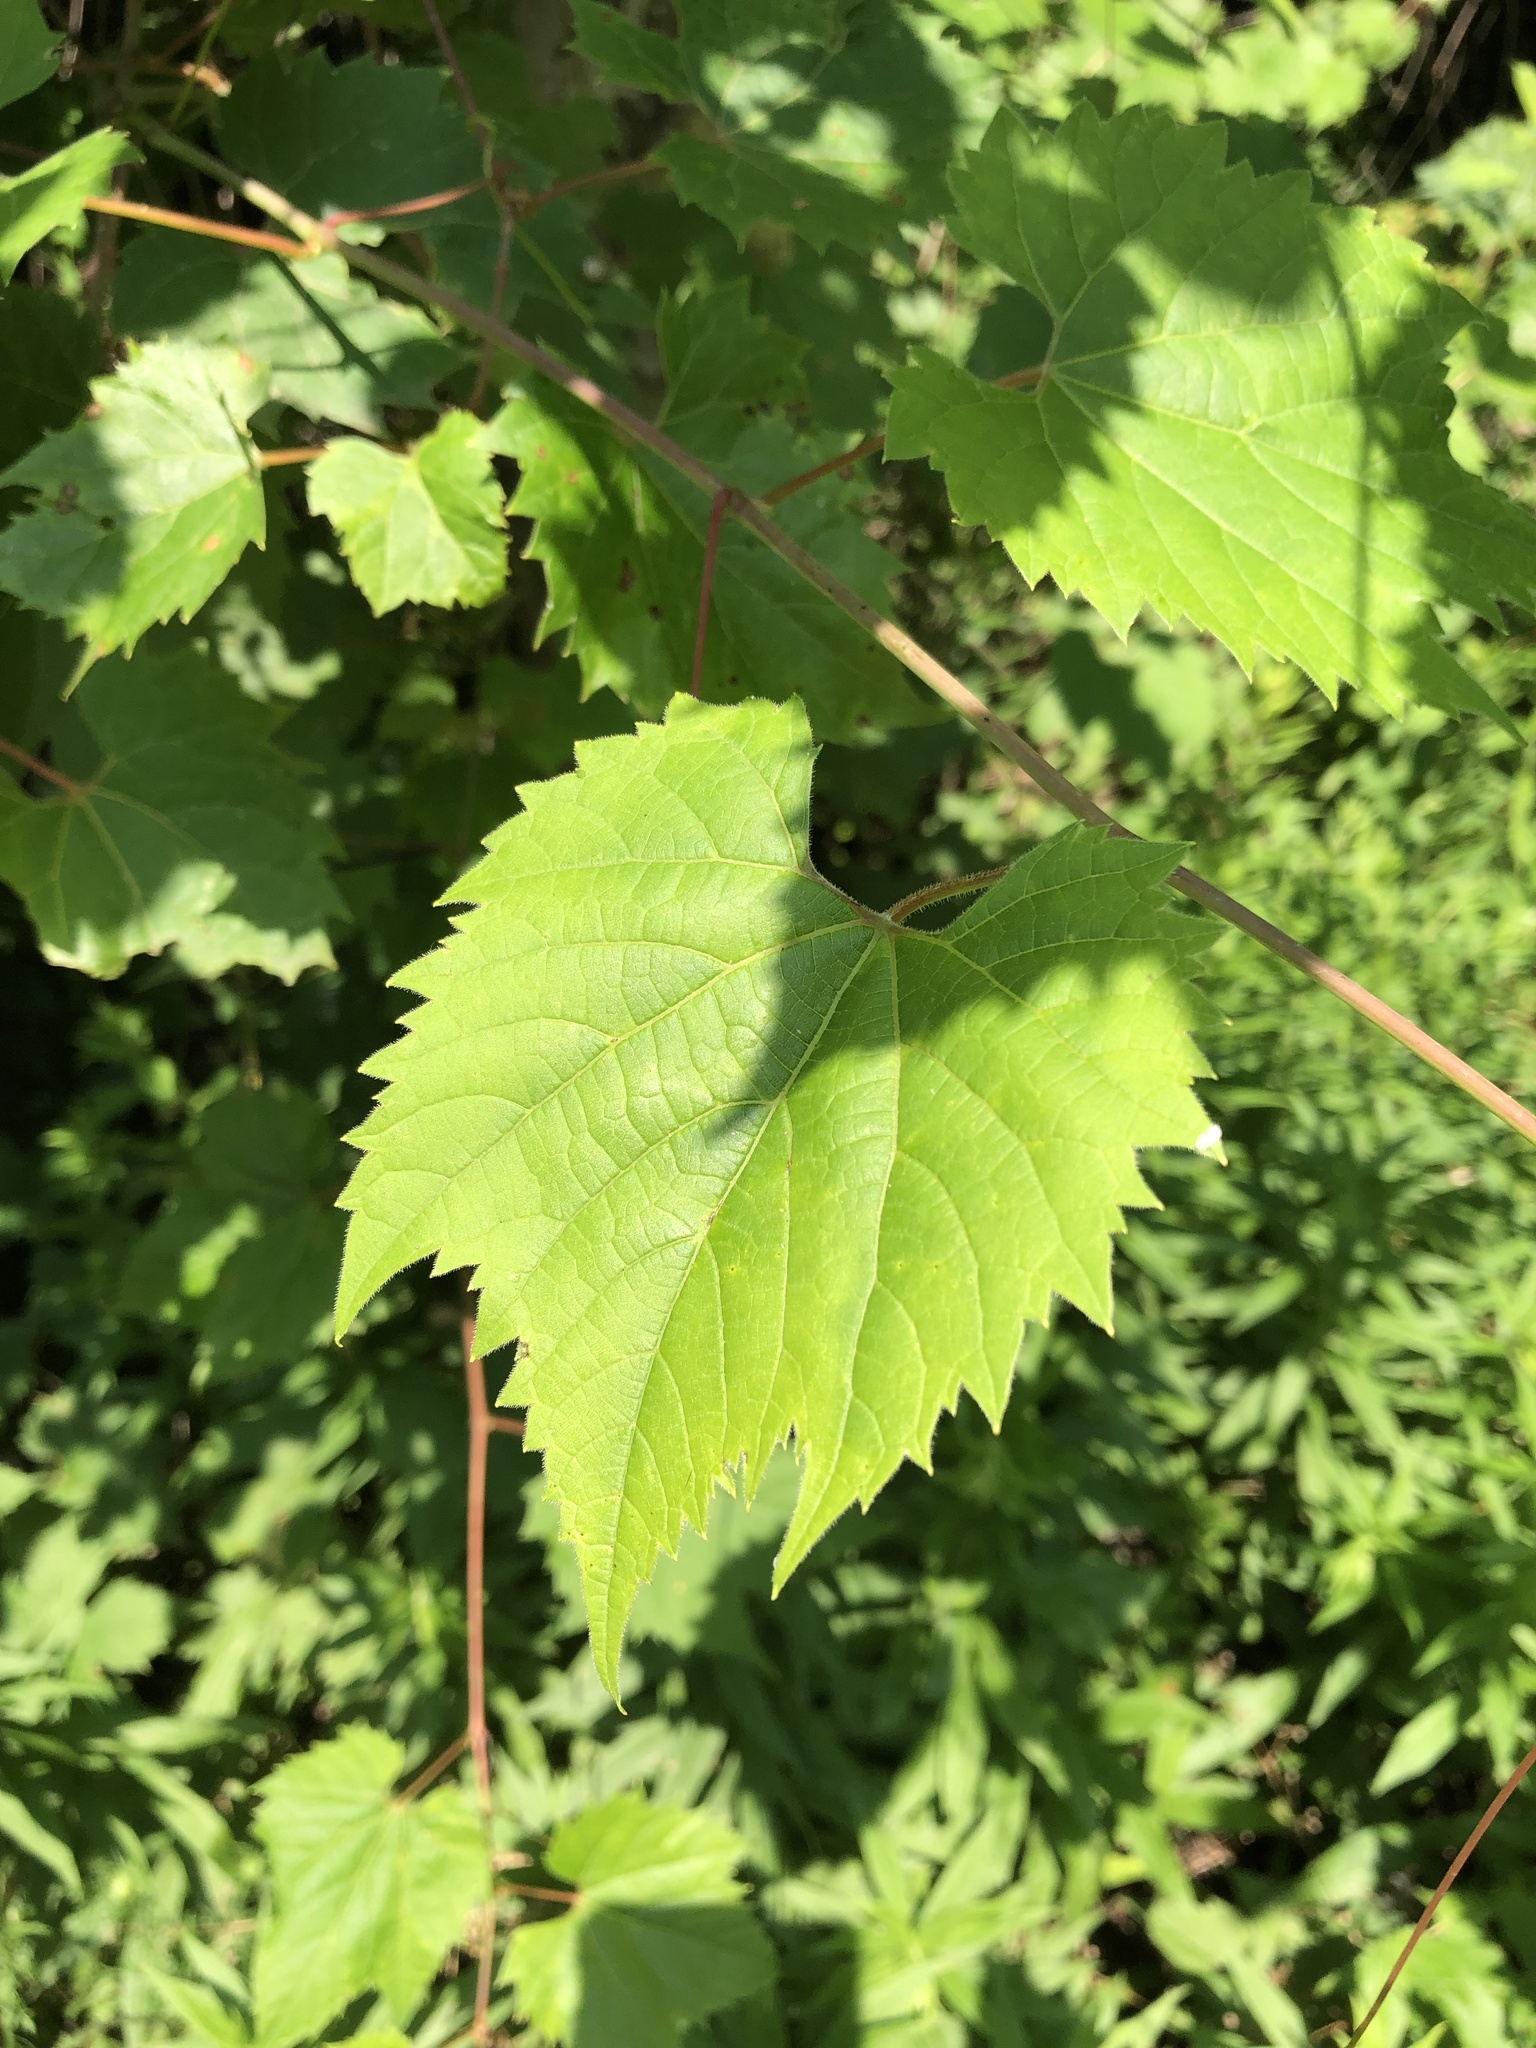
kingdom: Plantae
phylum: Tracheophyta
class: Magnoliopsida
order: Vitales
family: Vitaceae
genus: Vitis
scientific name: Vitis riparia
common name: Frost grape
